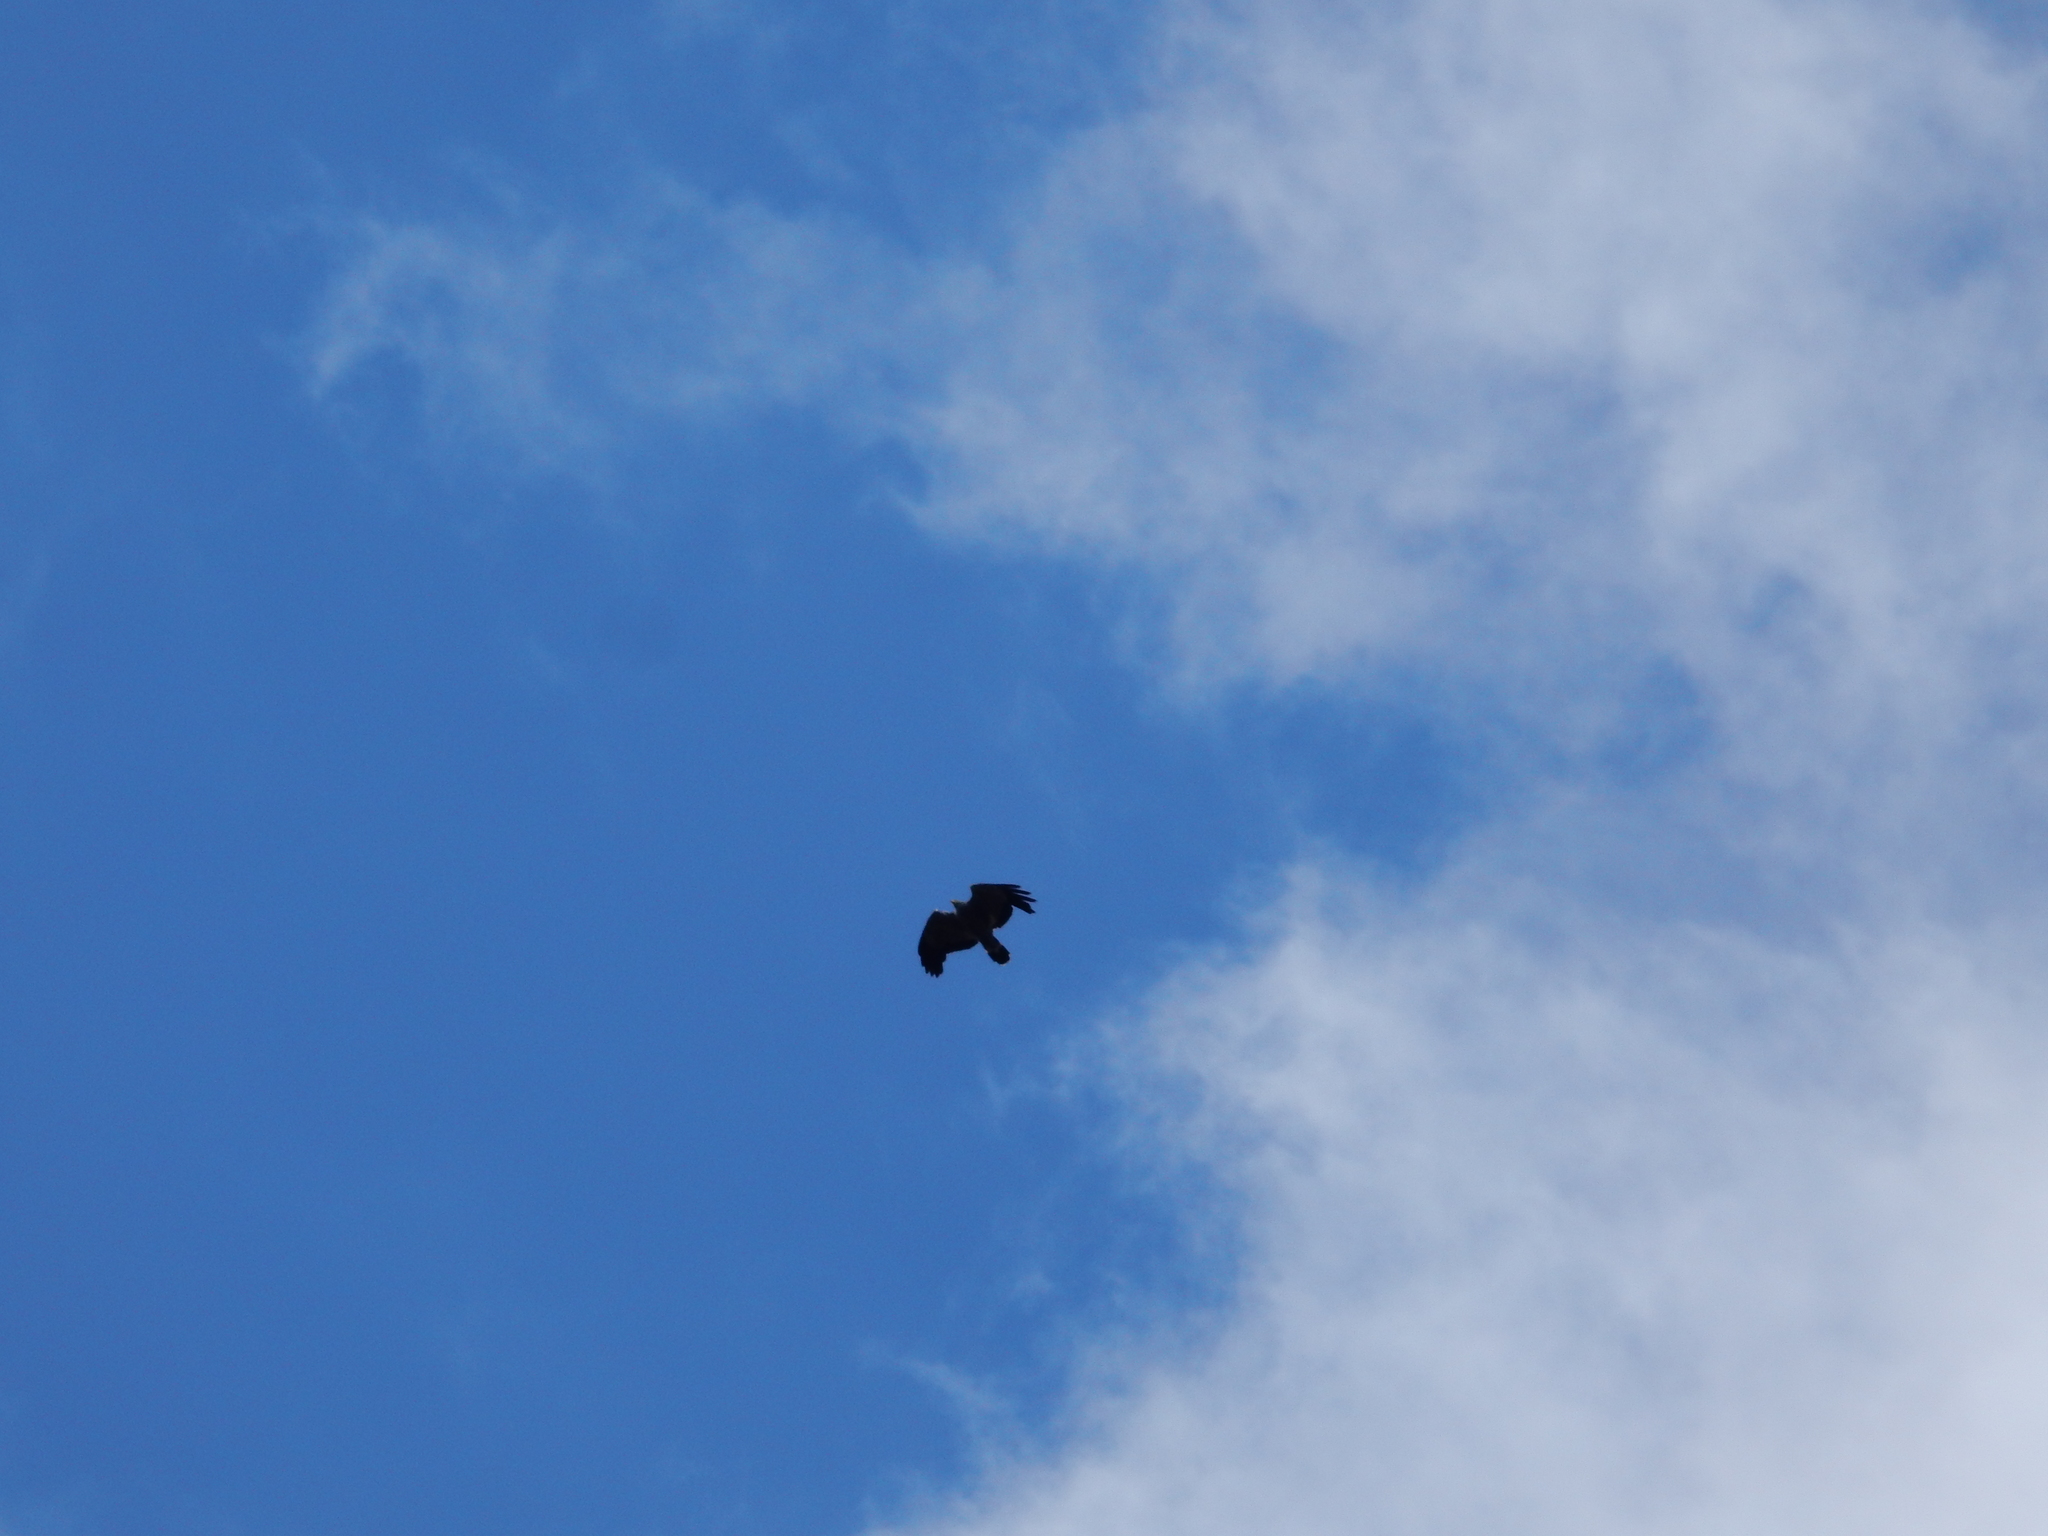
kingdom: Animalia
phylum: Chordata
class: Aves
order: Accipitriformes
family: Accipitridae
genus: Polyboroides
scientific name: Polyboroides typus
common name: African harrier-hawk
